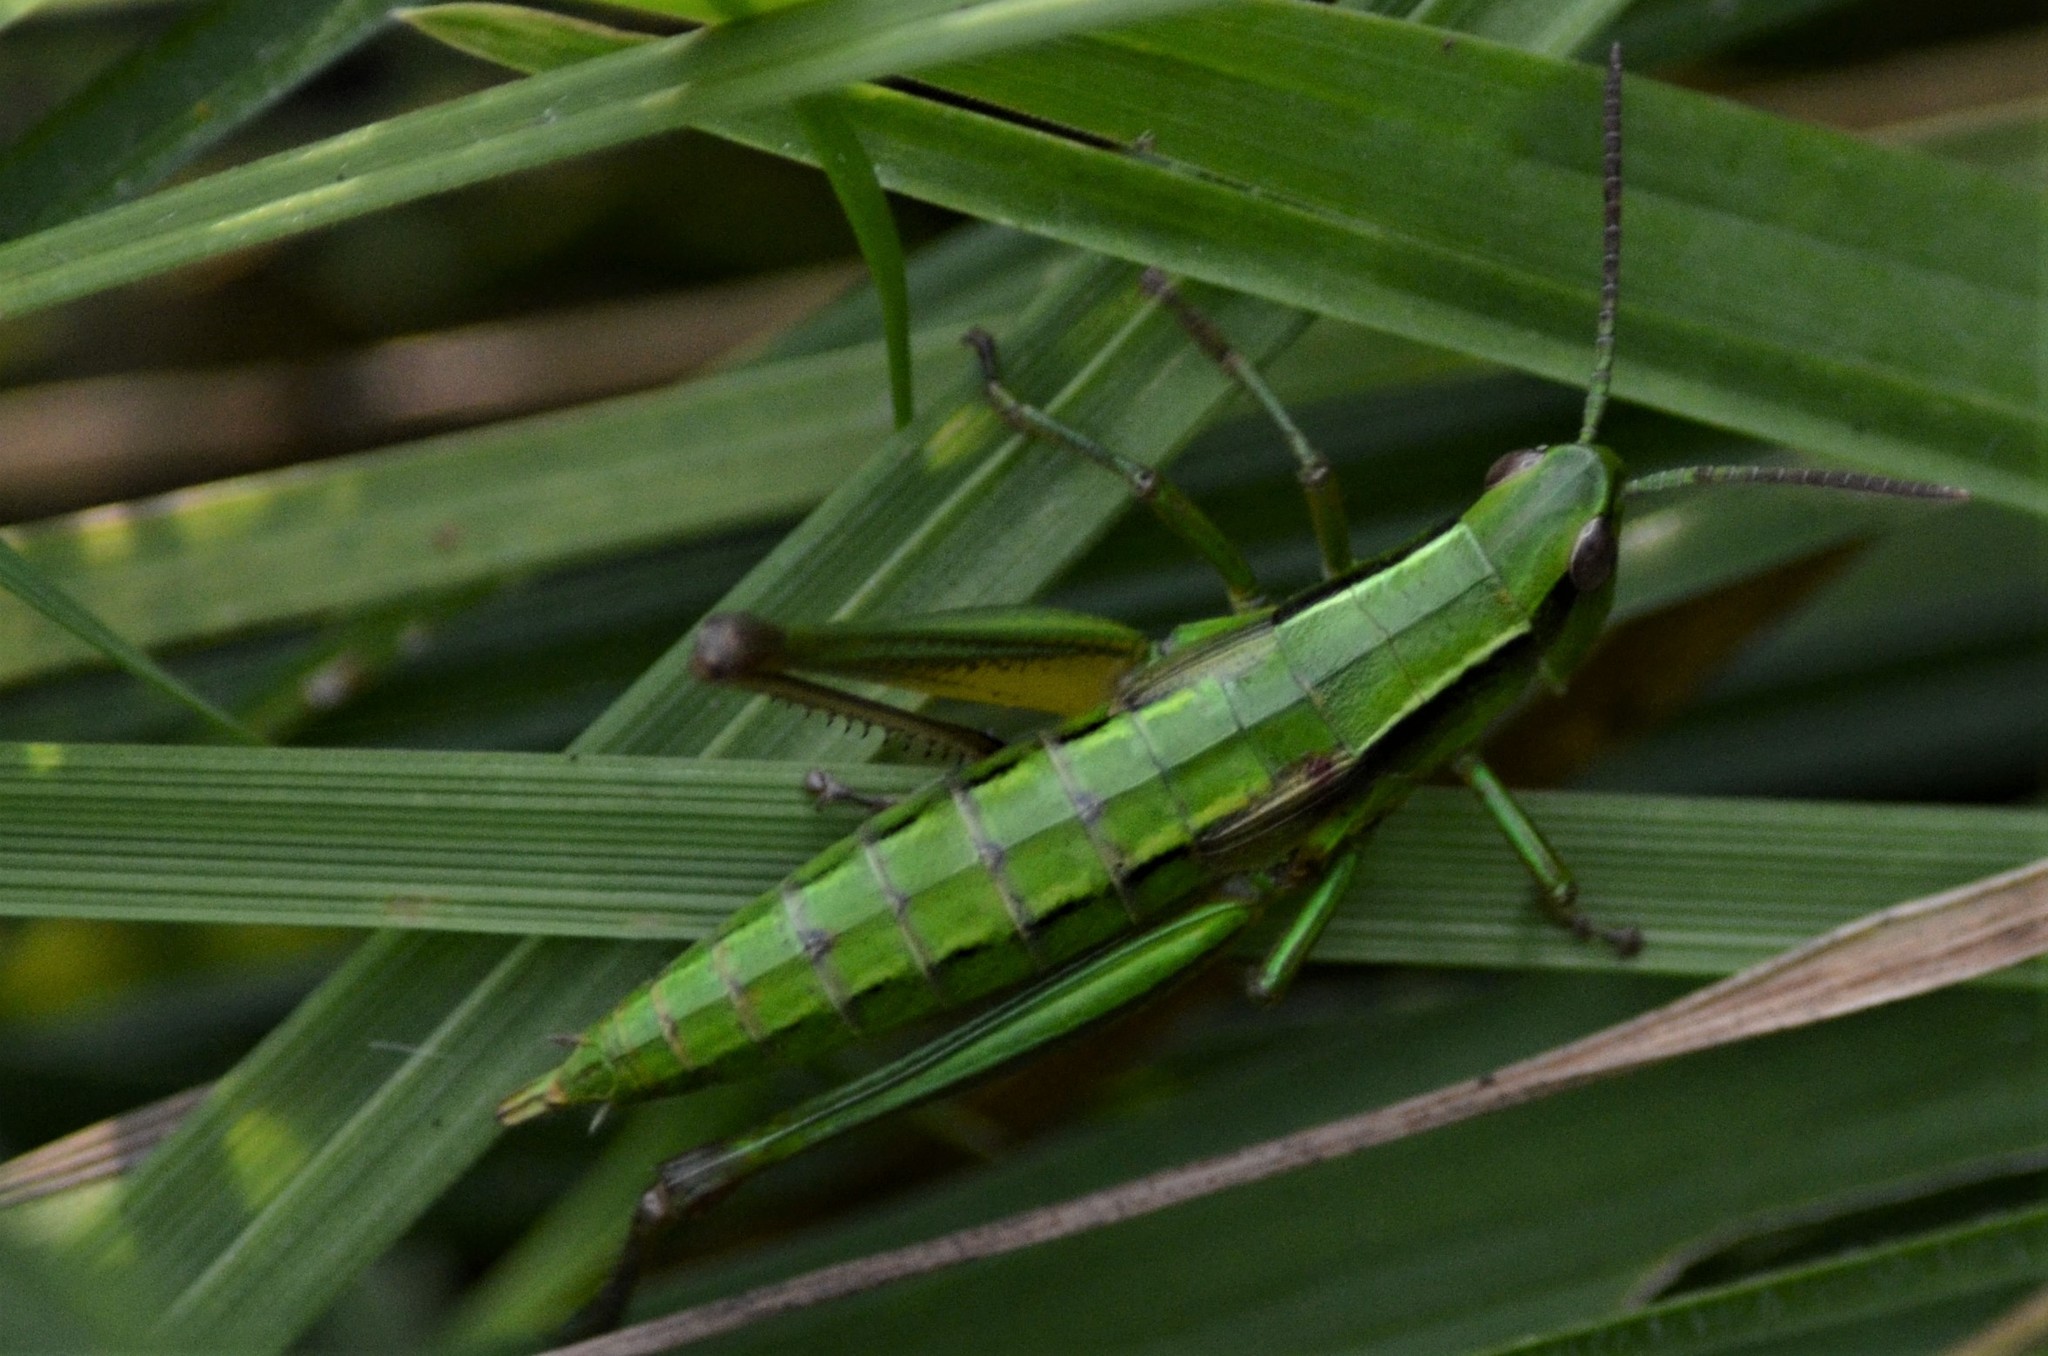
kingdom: Animalia
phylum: Arthropoda
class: Insecta
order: Orthoptera
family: Acrididae
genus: Euthystira
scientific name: Euthystira brachyptera
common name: Small gold grasshopper
